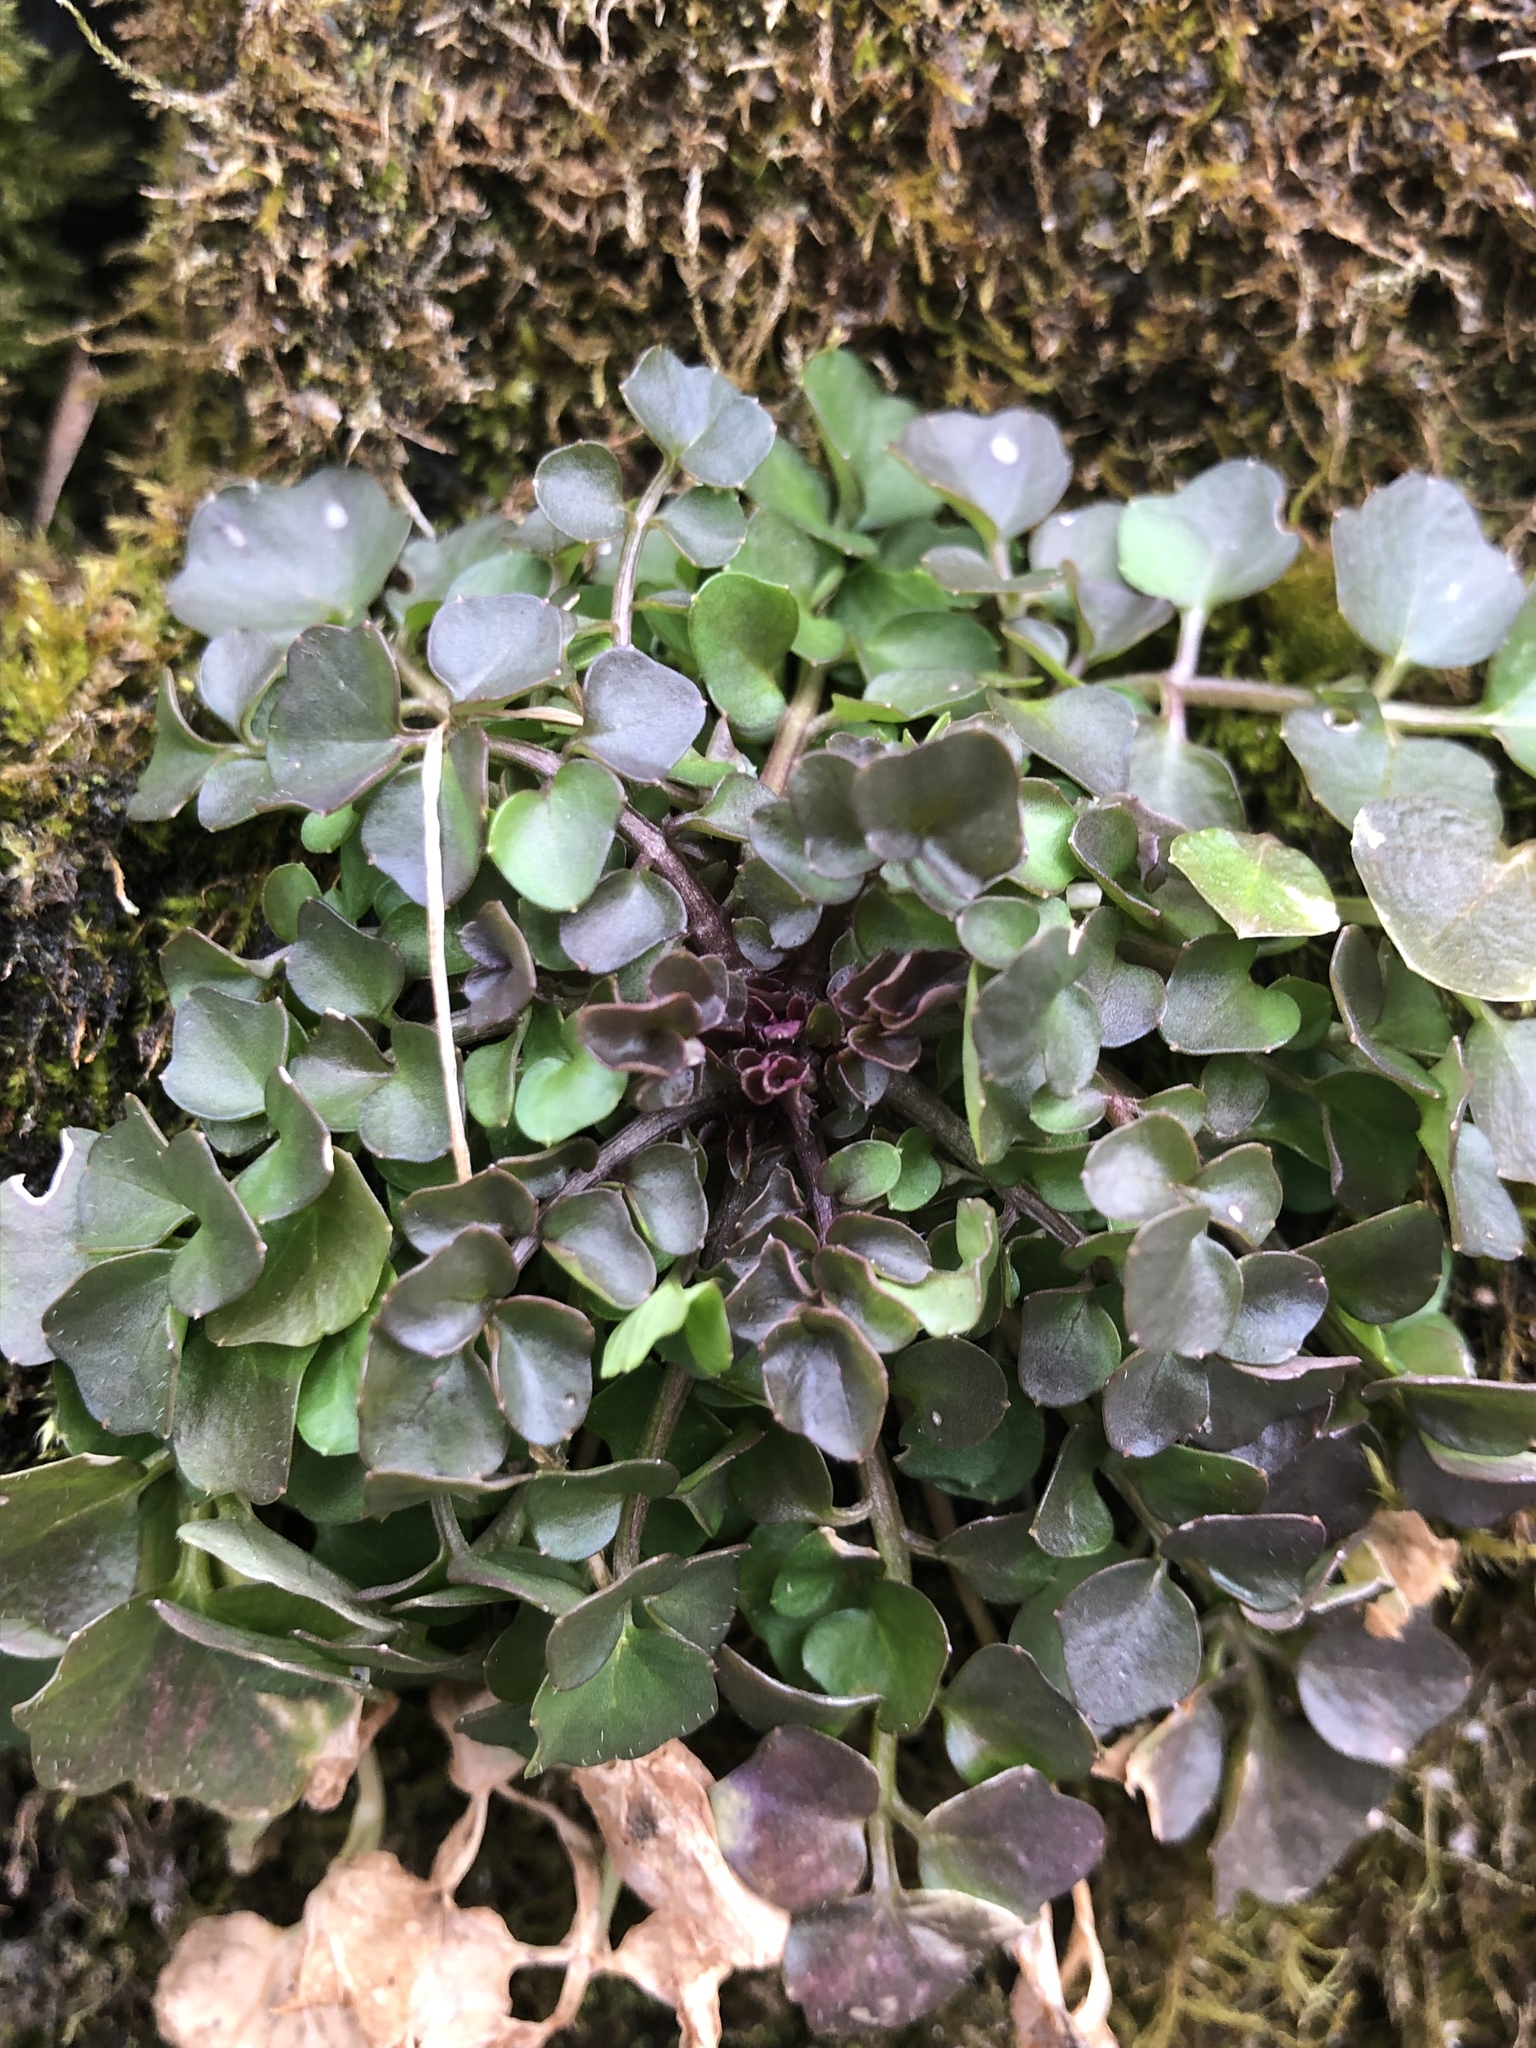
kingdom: Plantae
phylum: Tracheophyta
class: Magnoliopsida
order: Brassicales
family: Brassicaceae
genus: Cardamine
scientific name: Cardamine hirsuta
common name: Hairy bittercress
